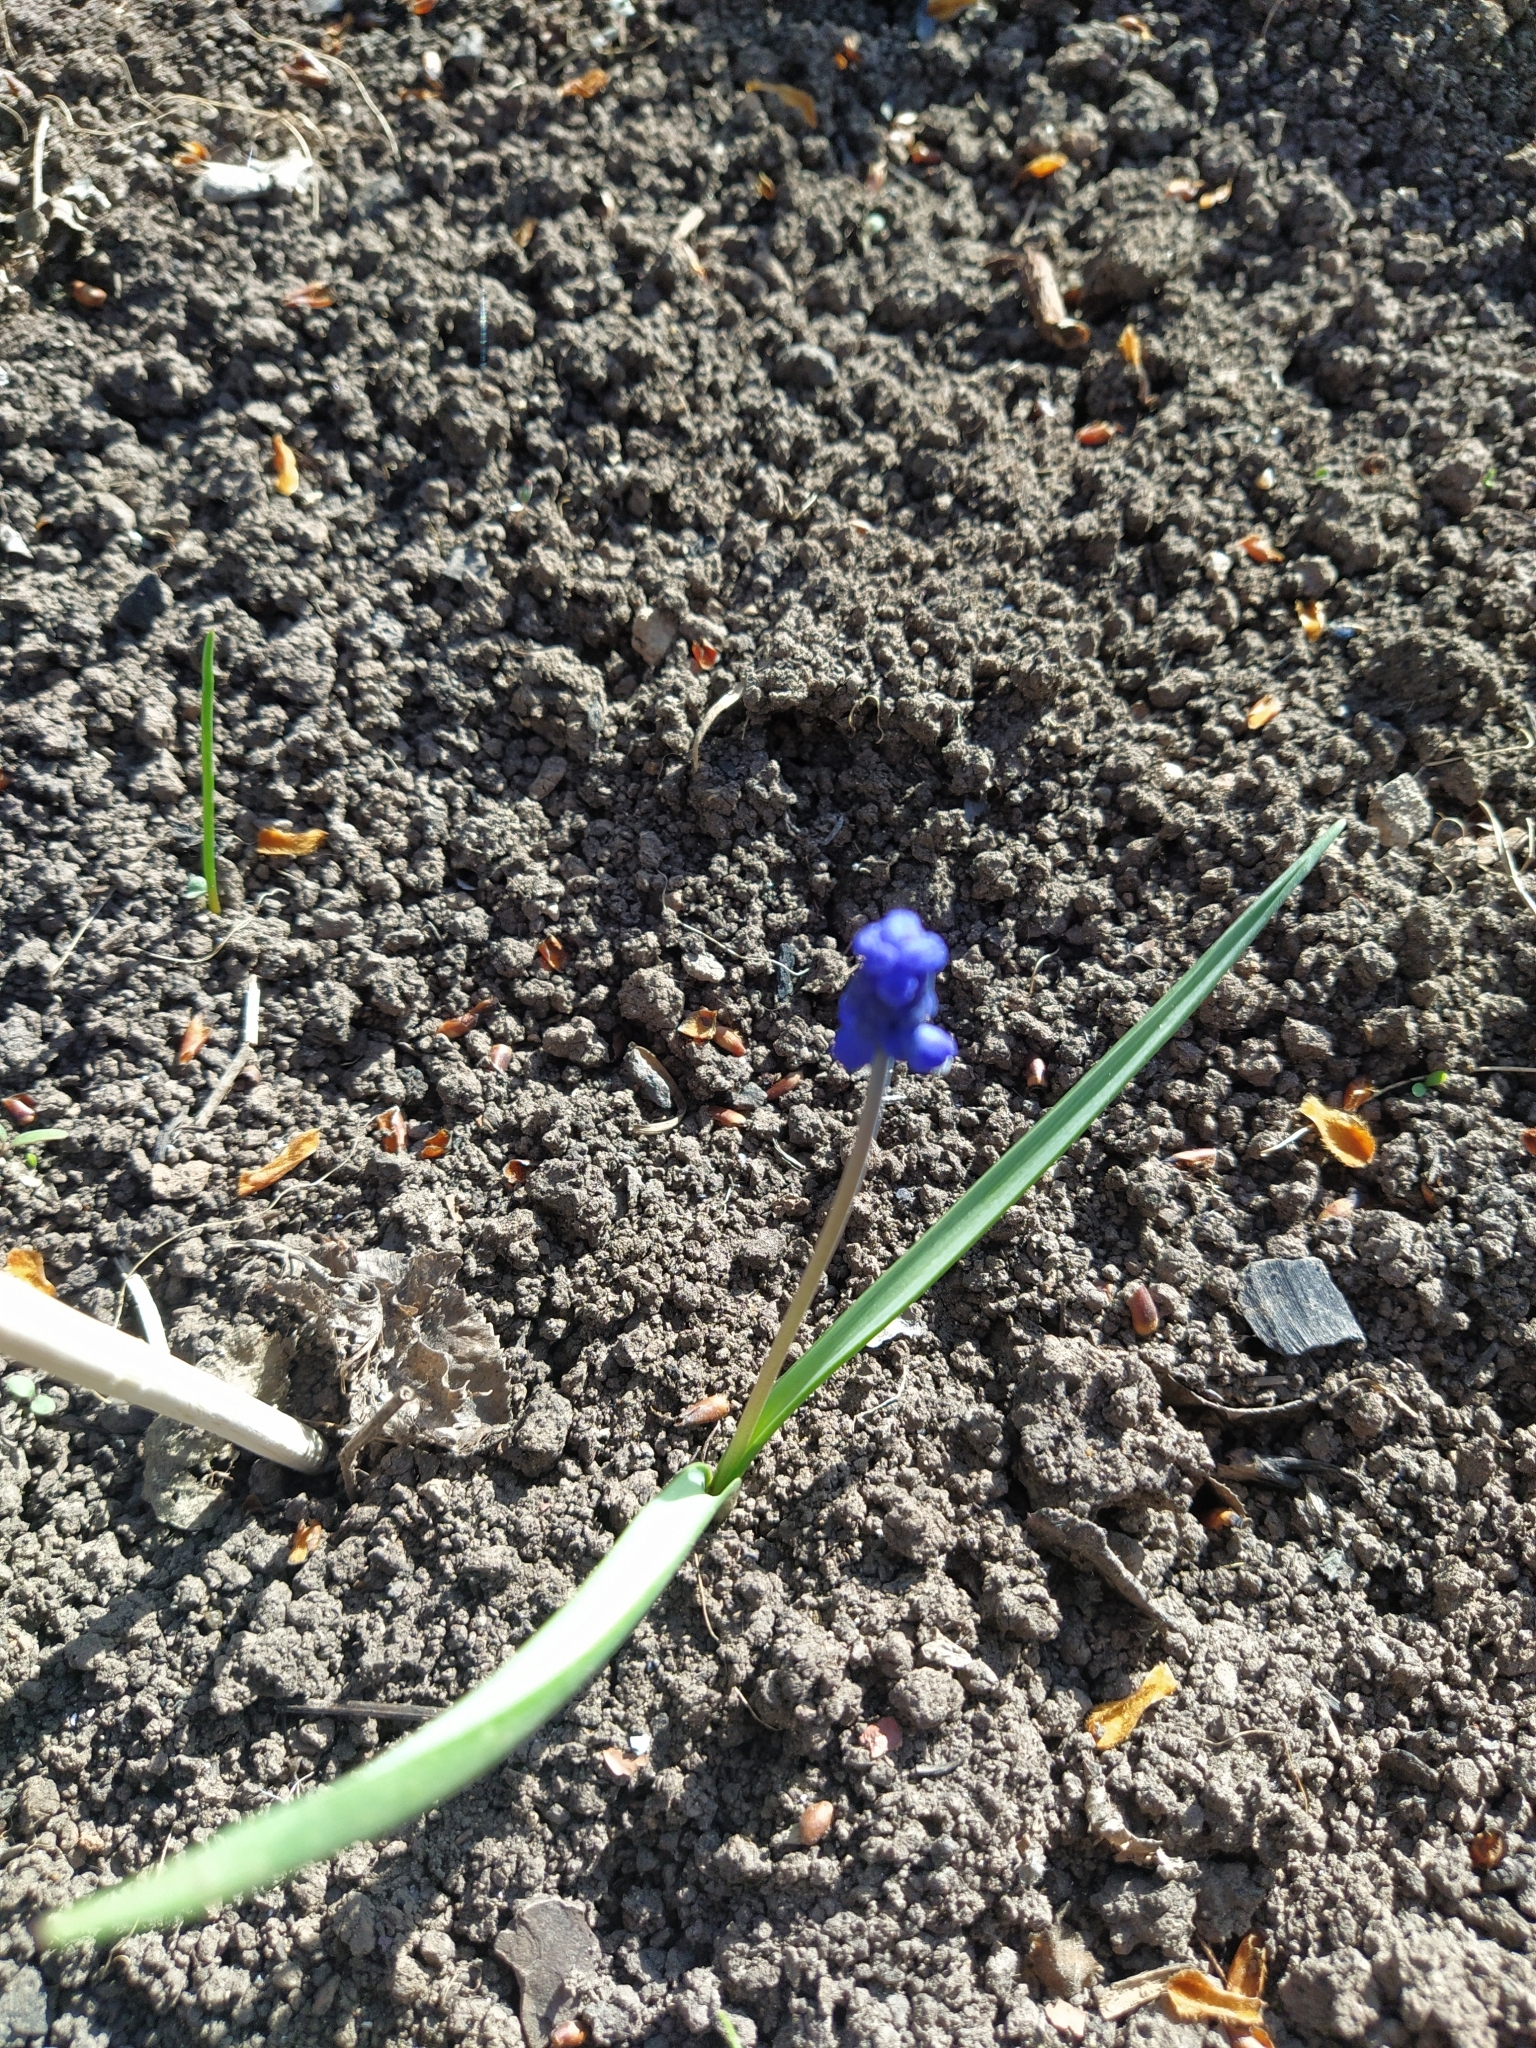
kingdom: Plantae
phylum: Tracheophyta
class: Liliopsida
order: Asparagales
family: Asparagaceae
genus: Muscari
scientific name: Muscari botryoides
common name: Compact grape-hyacinth
